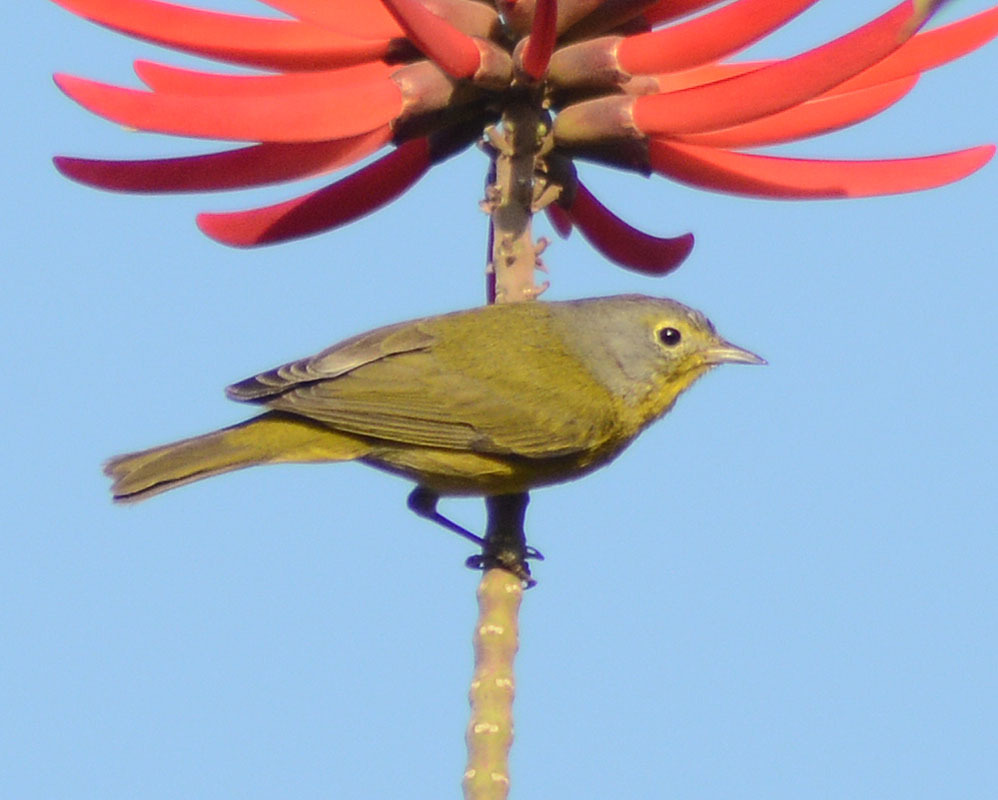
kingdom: Animalia
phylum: Chordata
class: Aves
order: Passeriformes
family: Parulidae
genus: Leiothlypis
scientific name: Leiothlypis ruficapilla
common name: Nashville warbler
